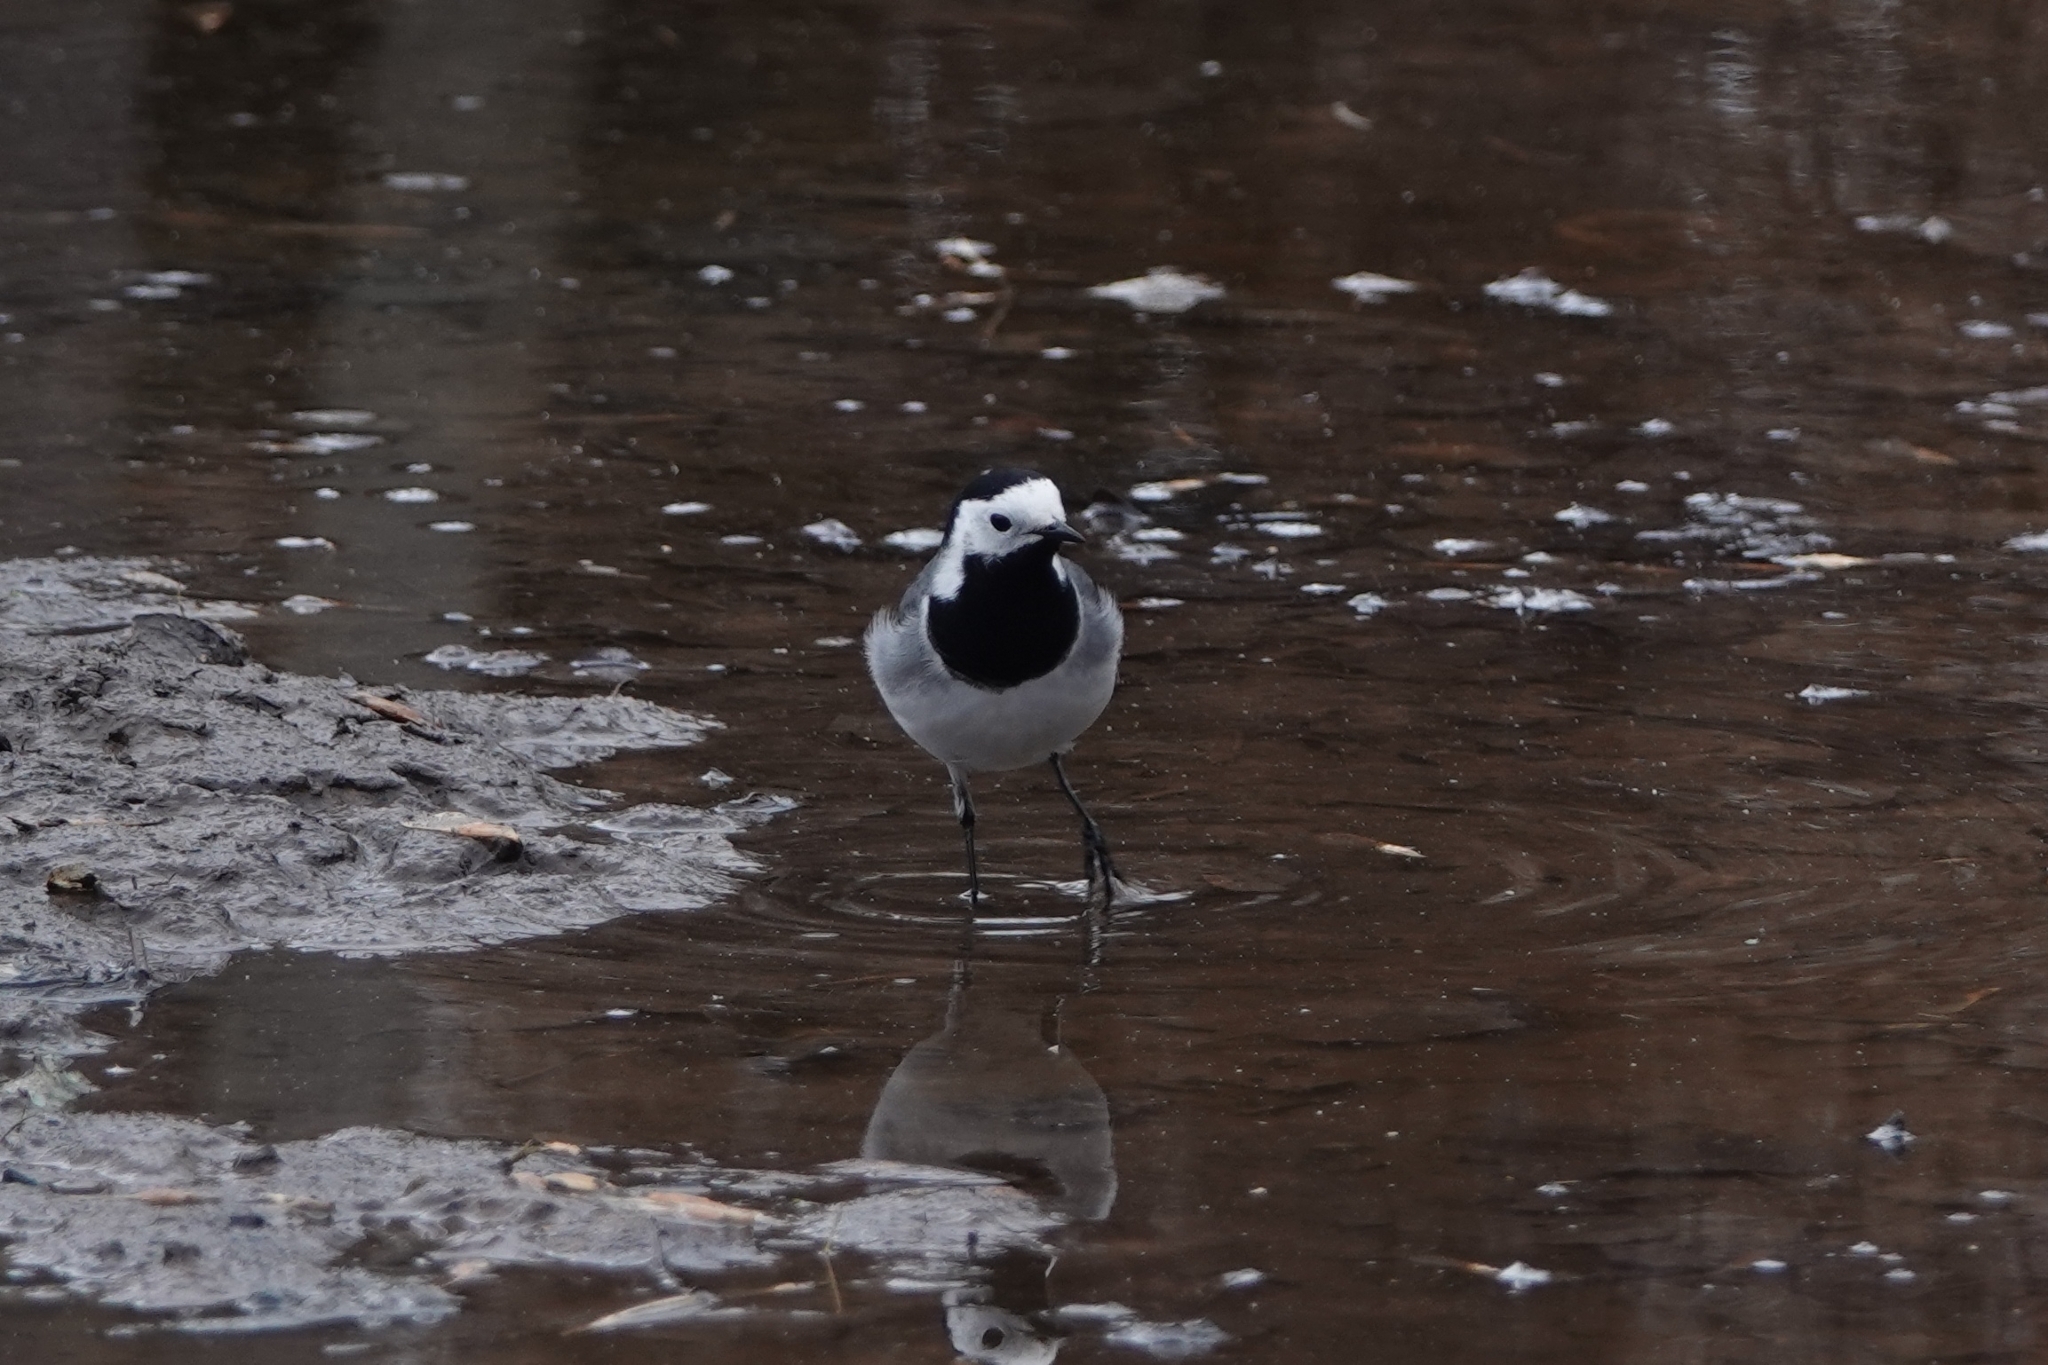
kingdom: Animalia
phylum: Chordata
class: Aves
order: Passeriformes
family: Motacillidae
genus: Motacilla
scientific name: Motacilla alba
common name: White wagtail
